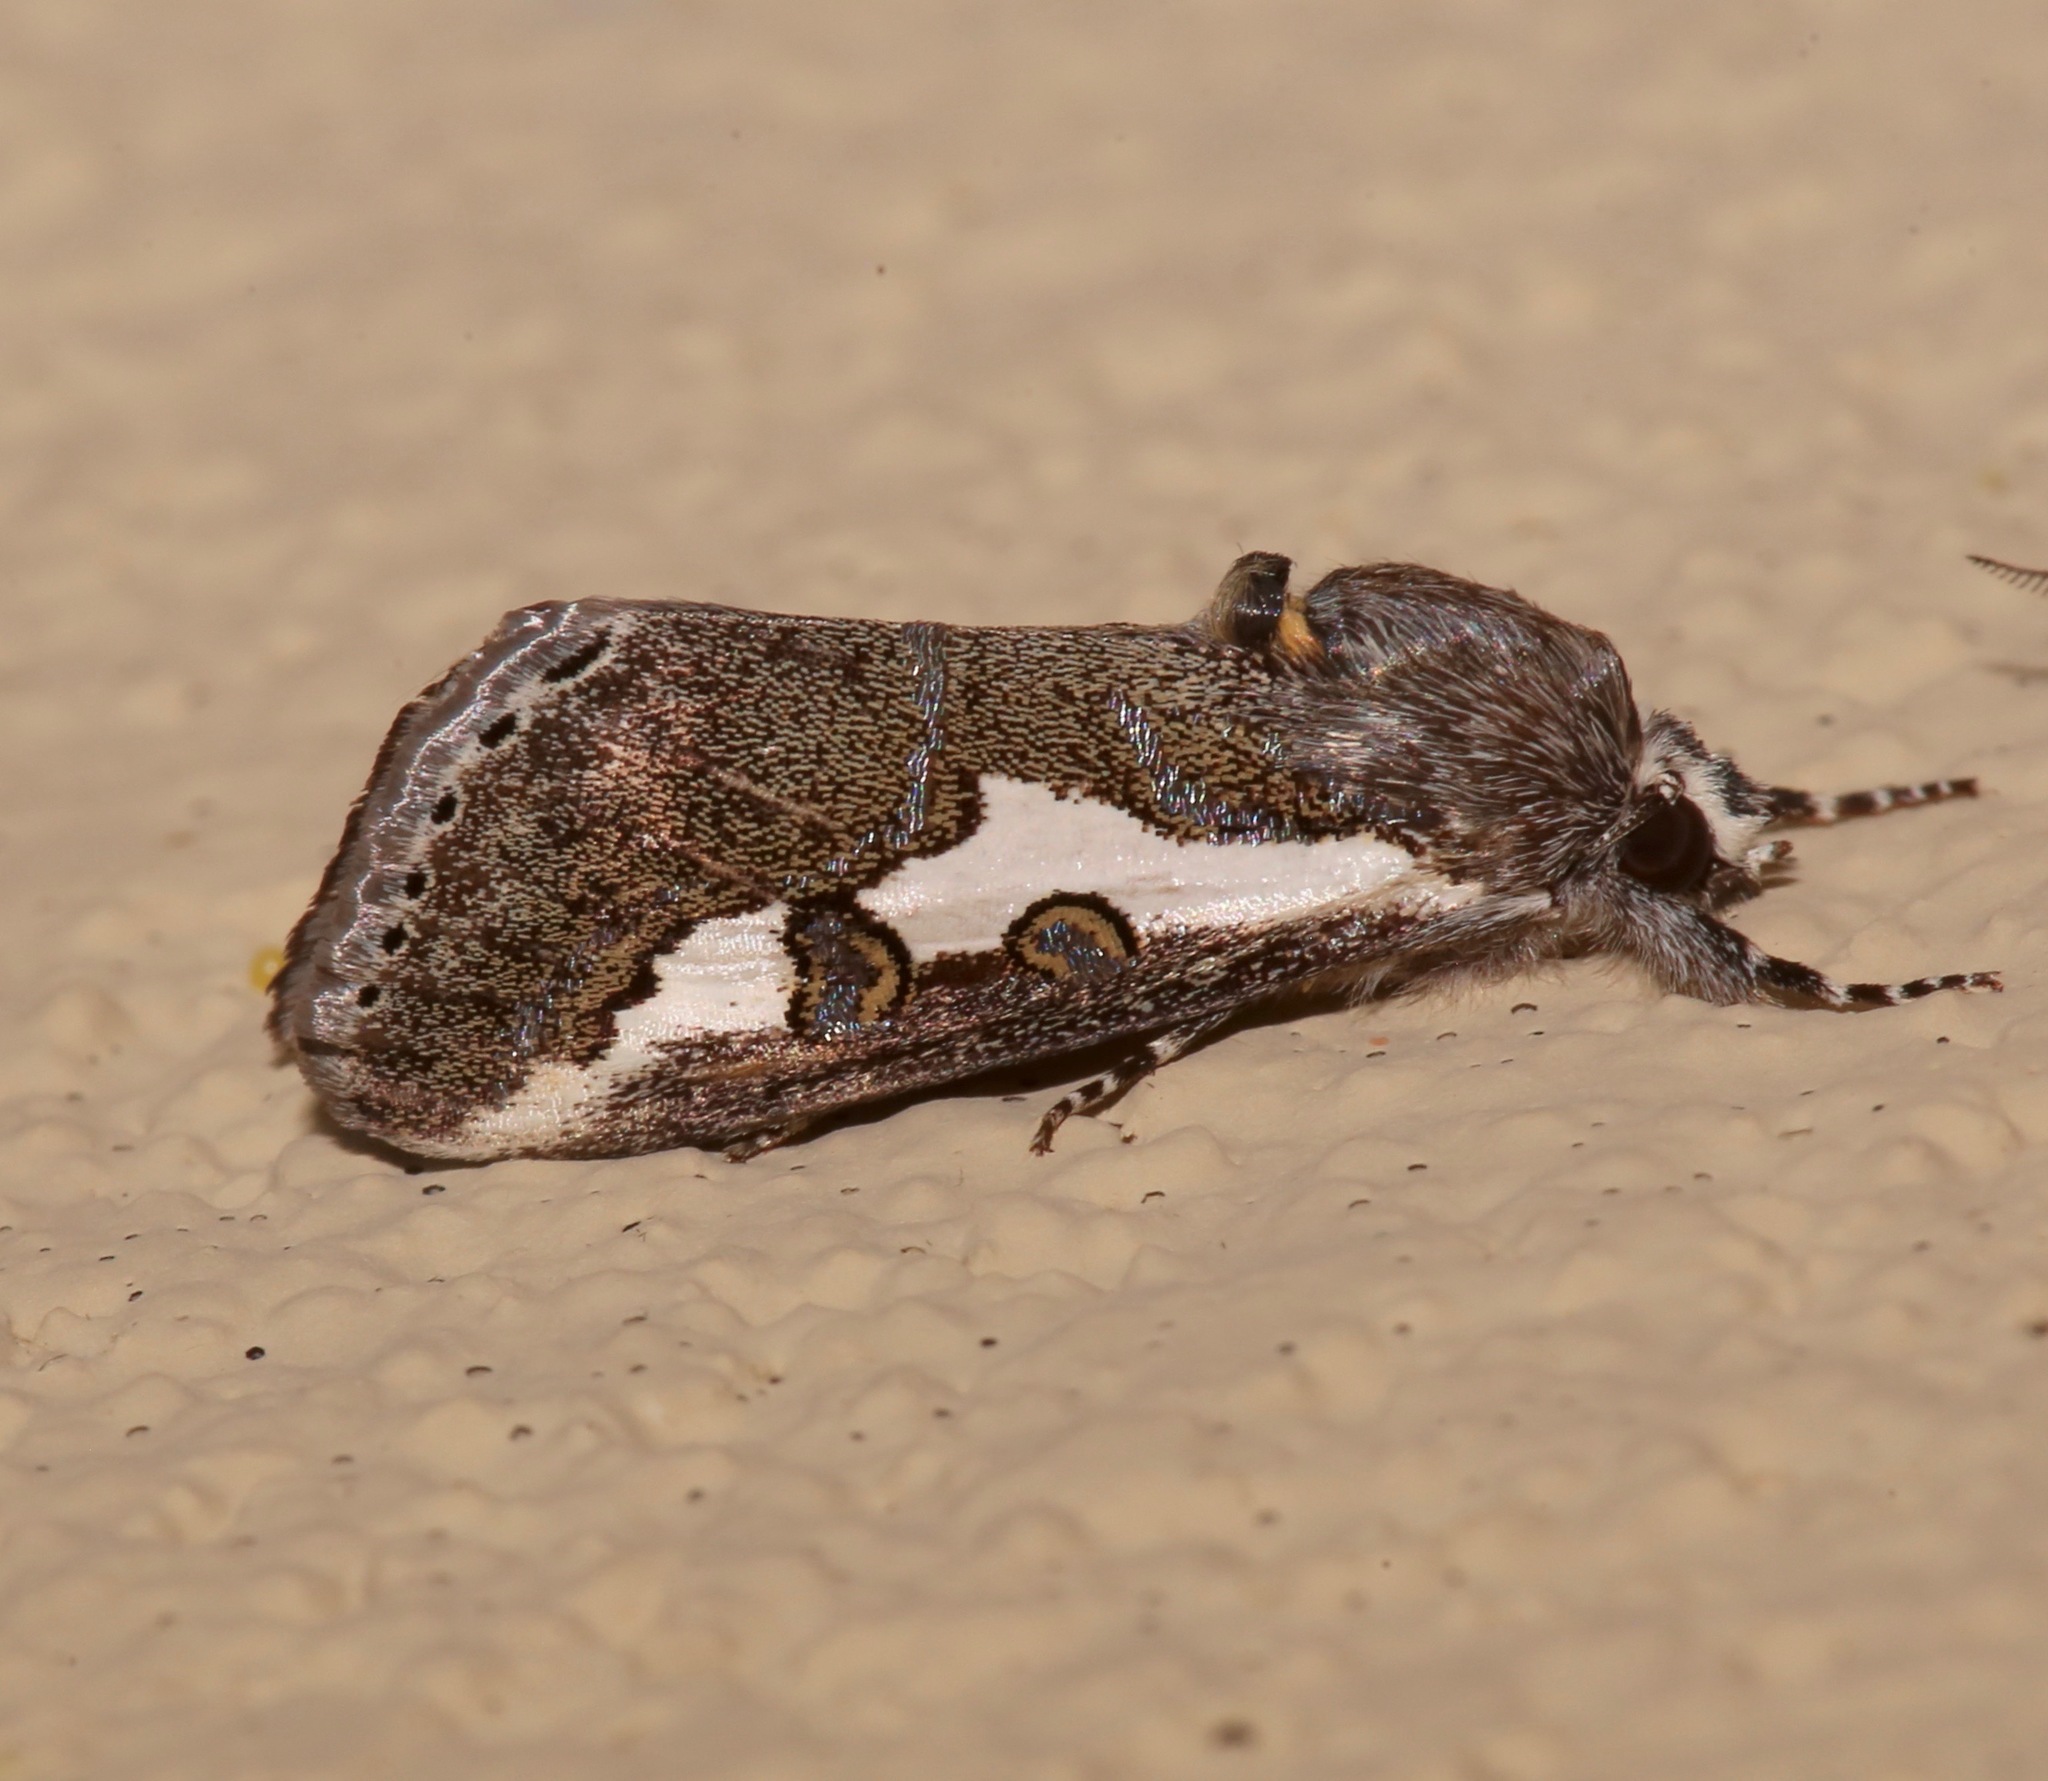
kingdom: Animalia
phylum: Arthropoda
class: Insecta
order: Lepidoptera
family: Noctuidae
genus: Euscirrhopterus
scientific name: Euscirrhopterus gloveri
